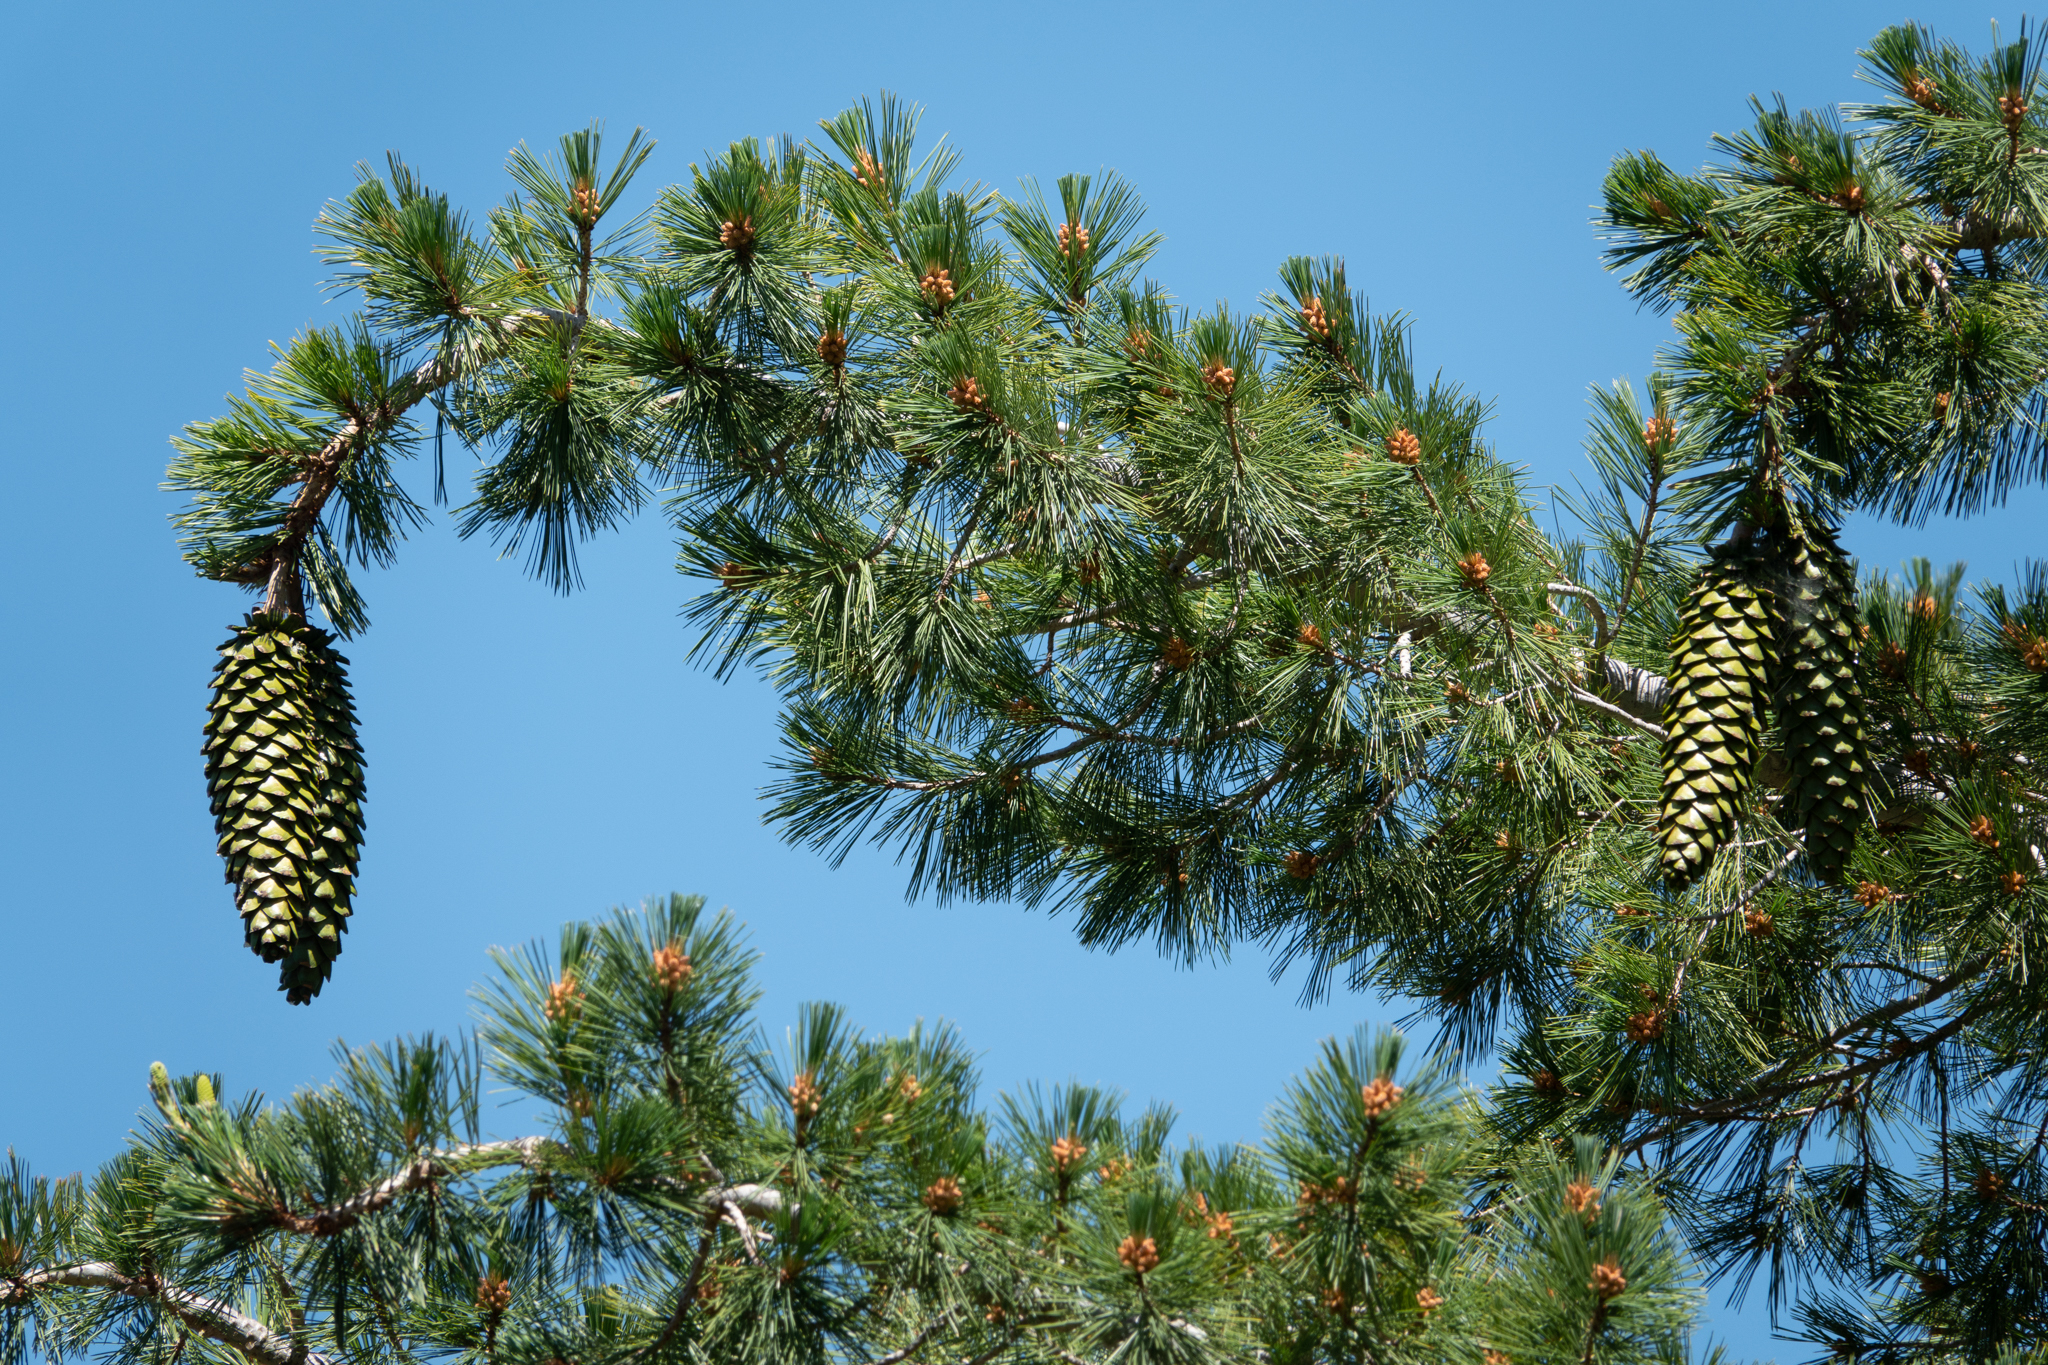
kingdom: Plantae
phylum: Tracheophyta
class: Pinopsida
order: Pinales
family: Pinaceae
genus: Pinus
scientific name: Pinus lambertiana
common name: Sugar pine
